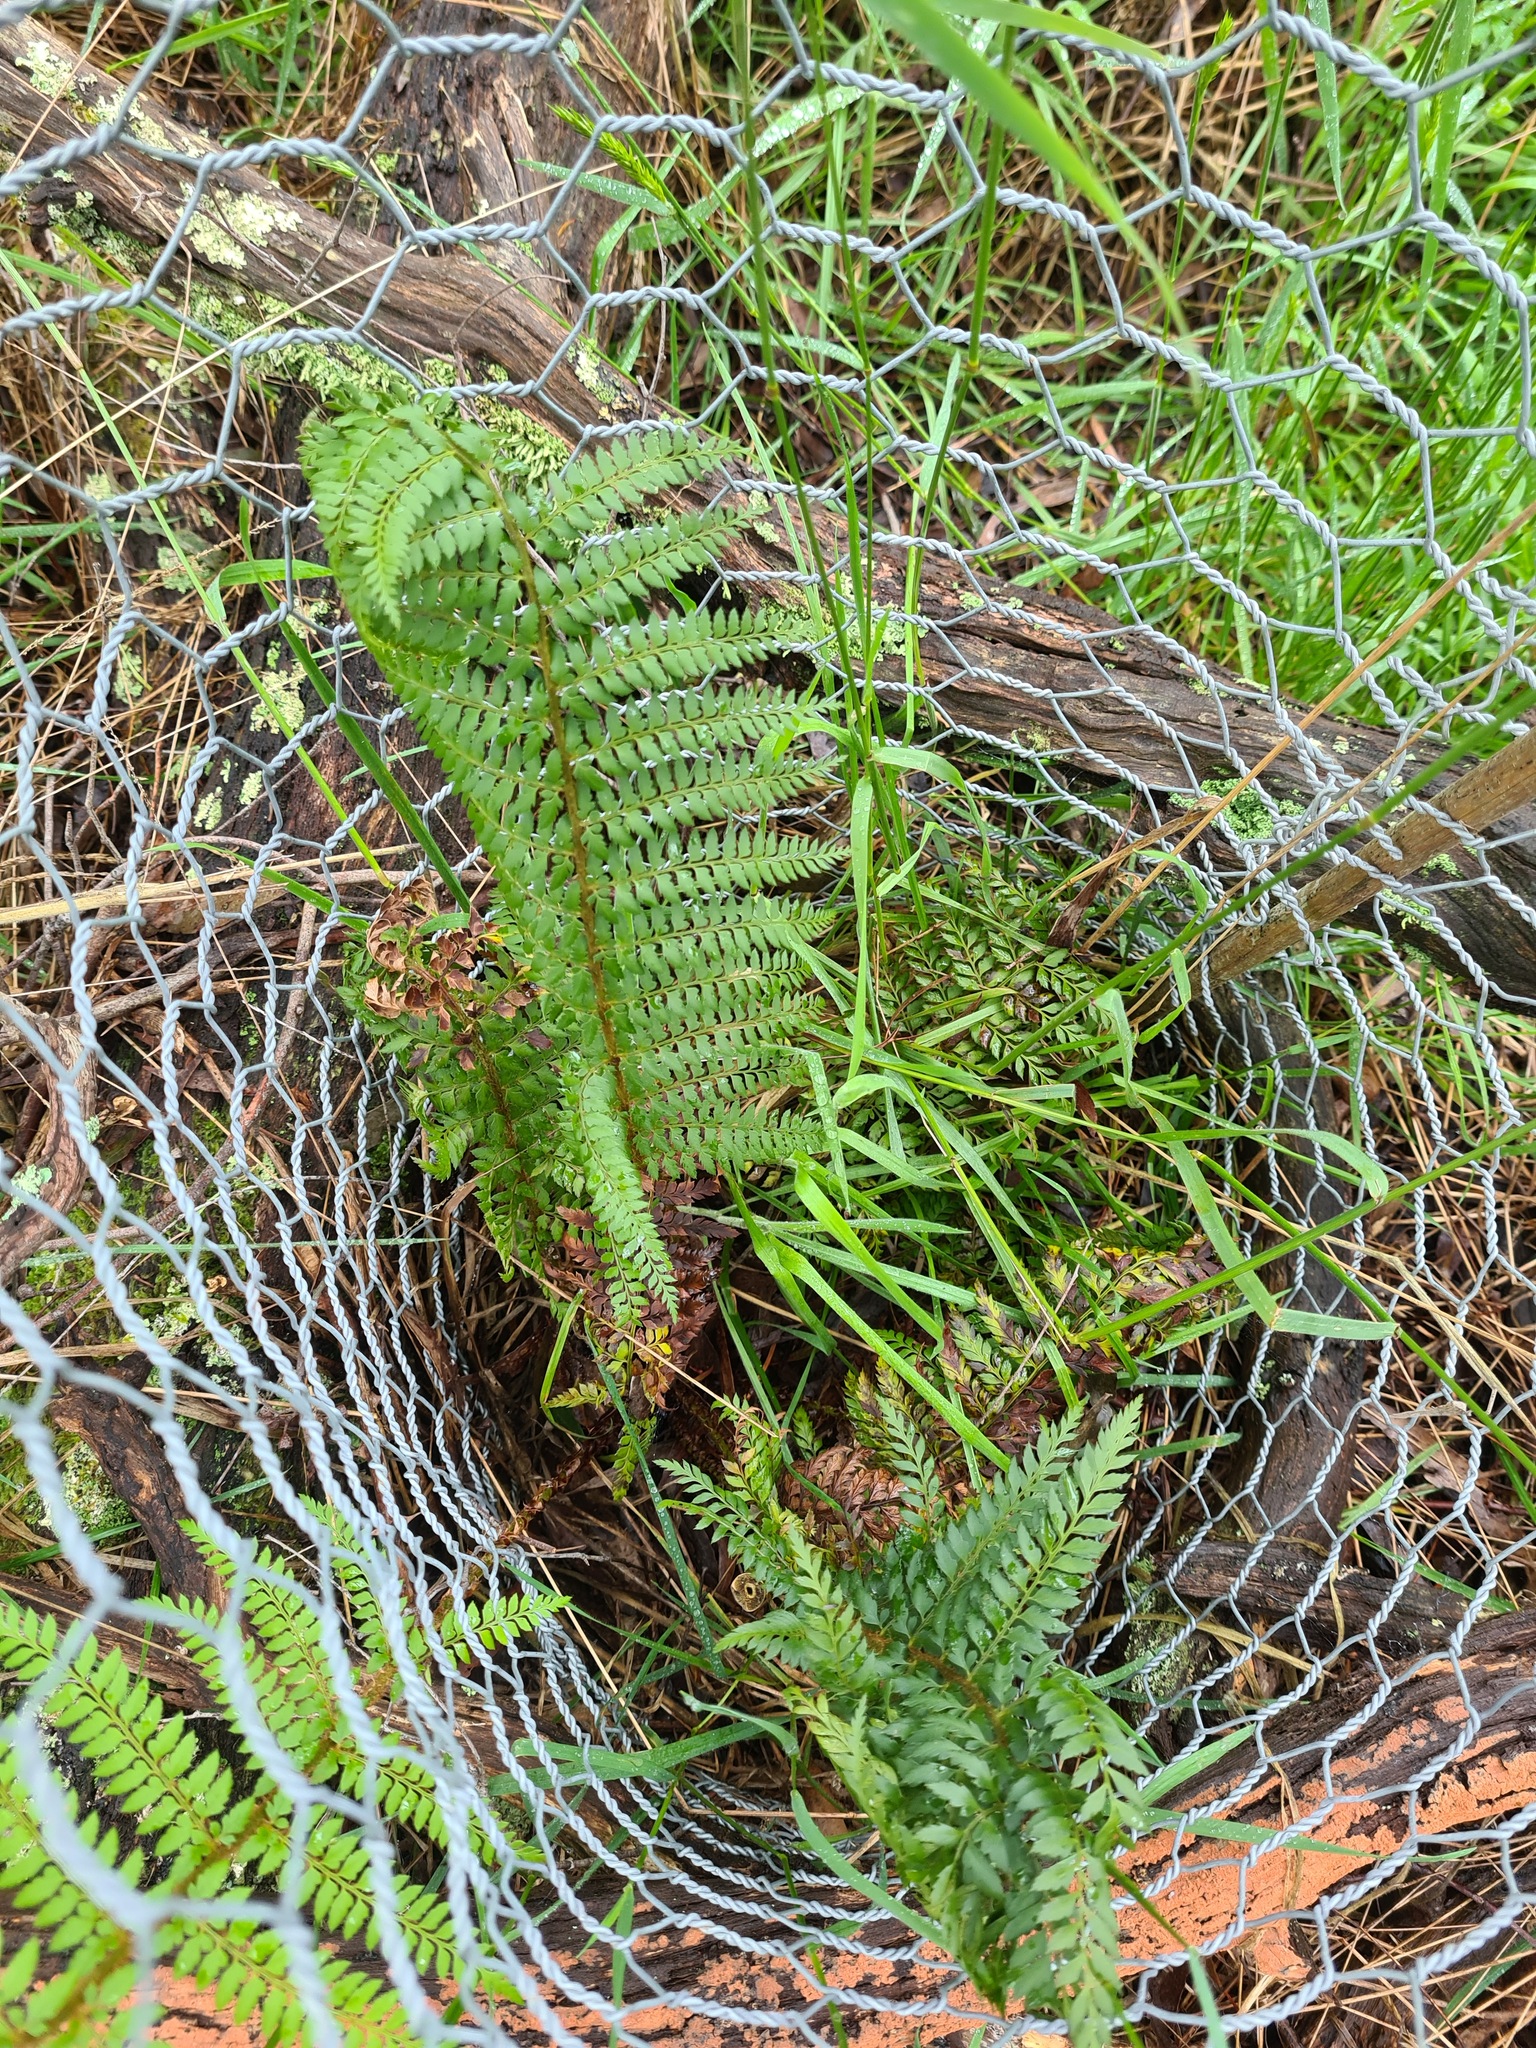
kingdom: Plantae
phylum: Tracheophyta
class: Polypodiopsida
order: Polypodiales
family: Dryopteridaceae
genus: Polystichum
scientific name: Polystichum proliferum
